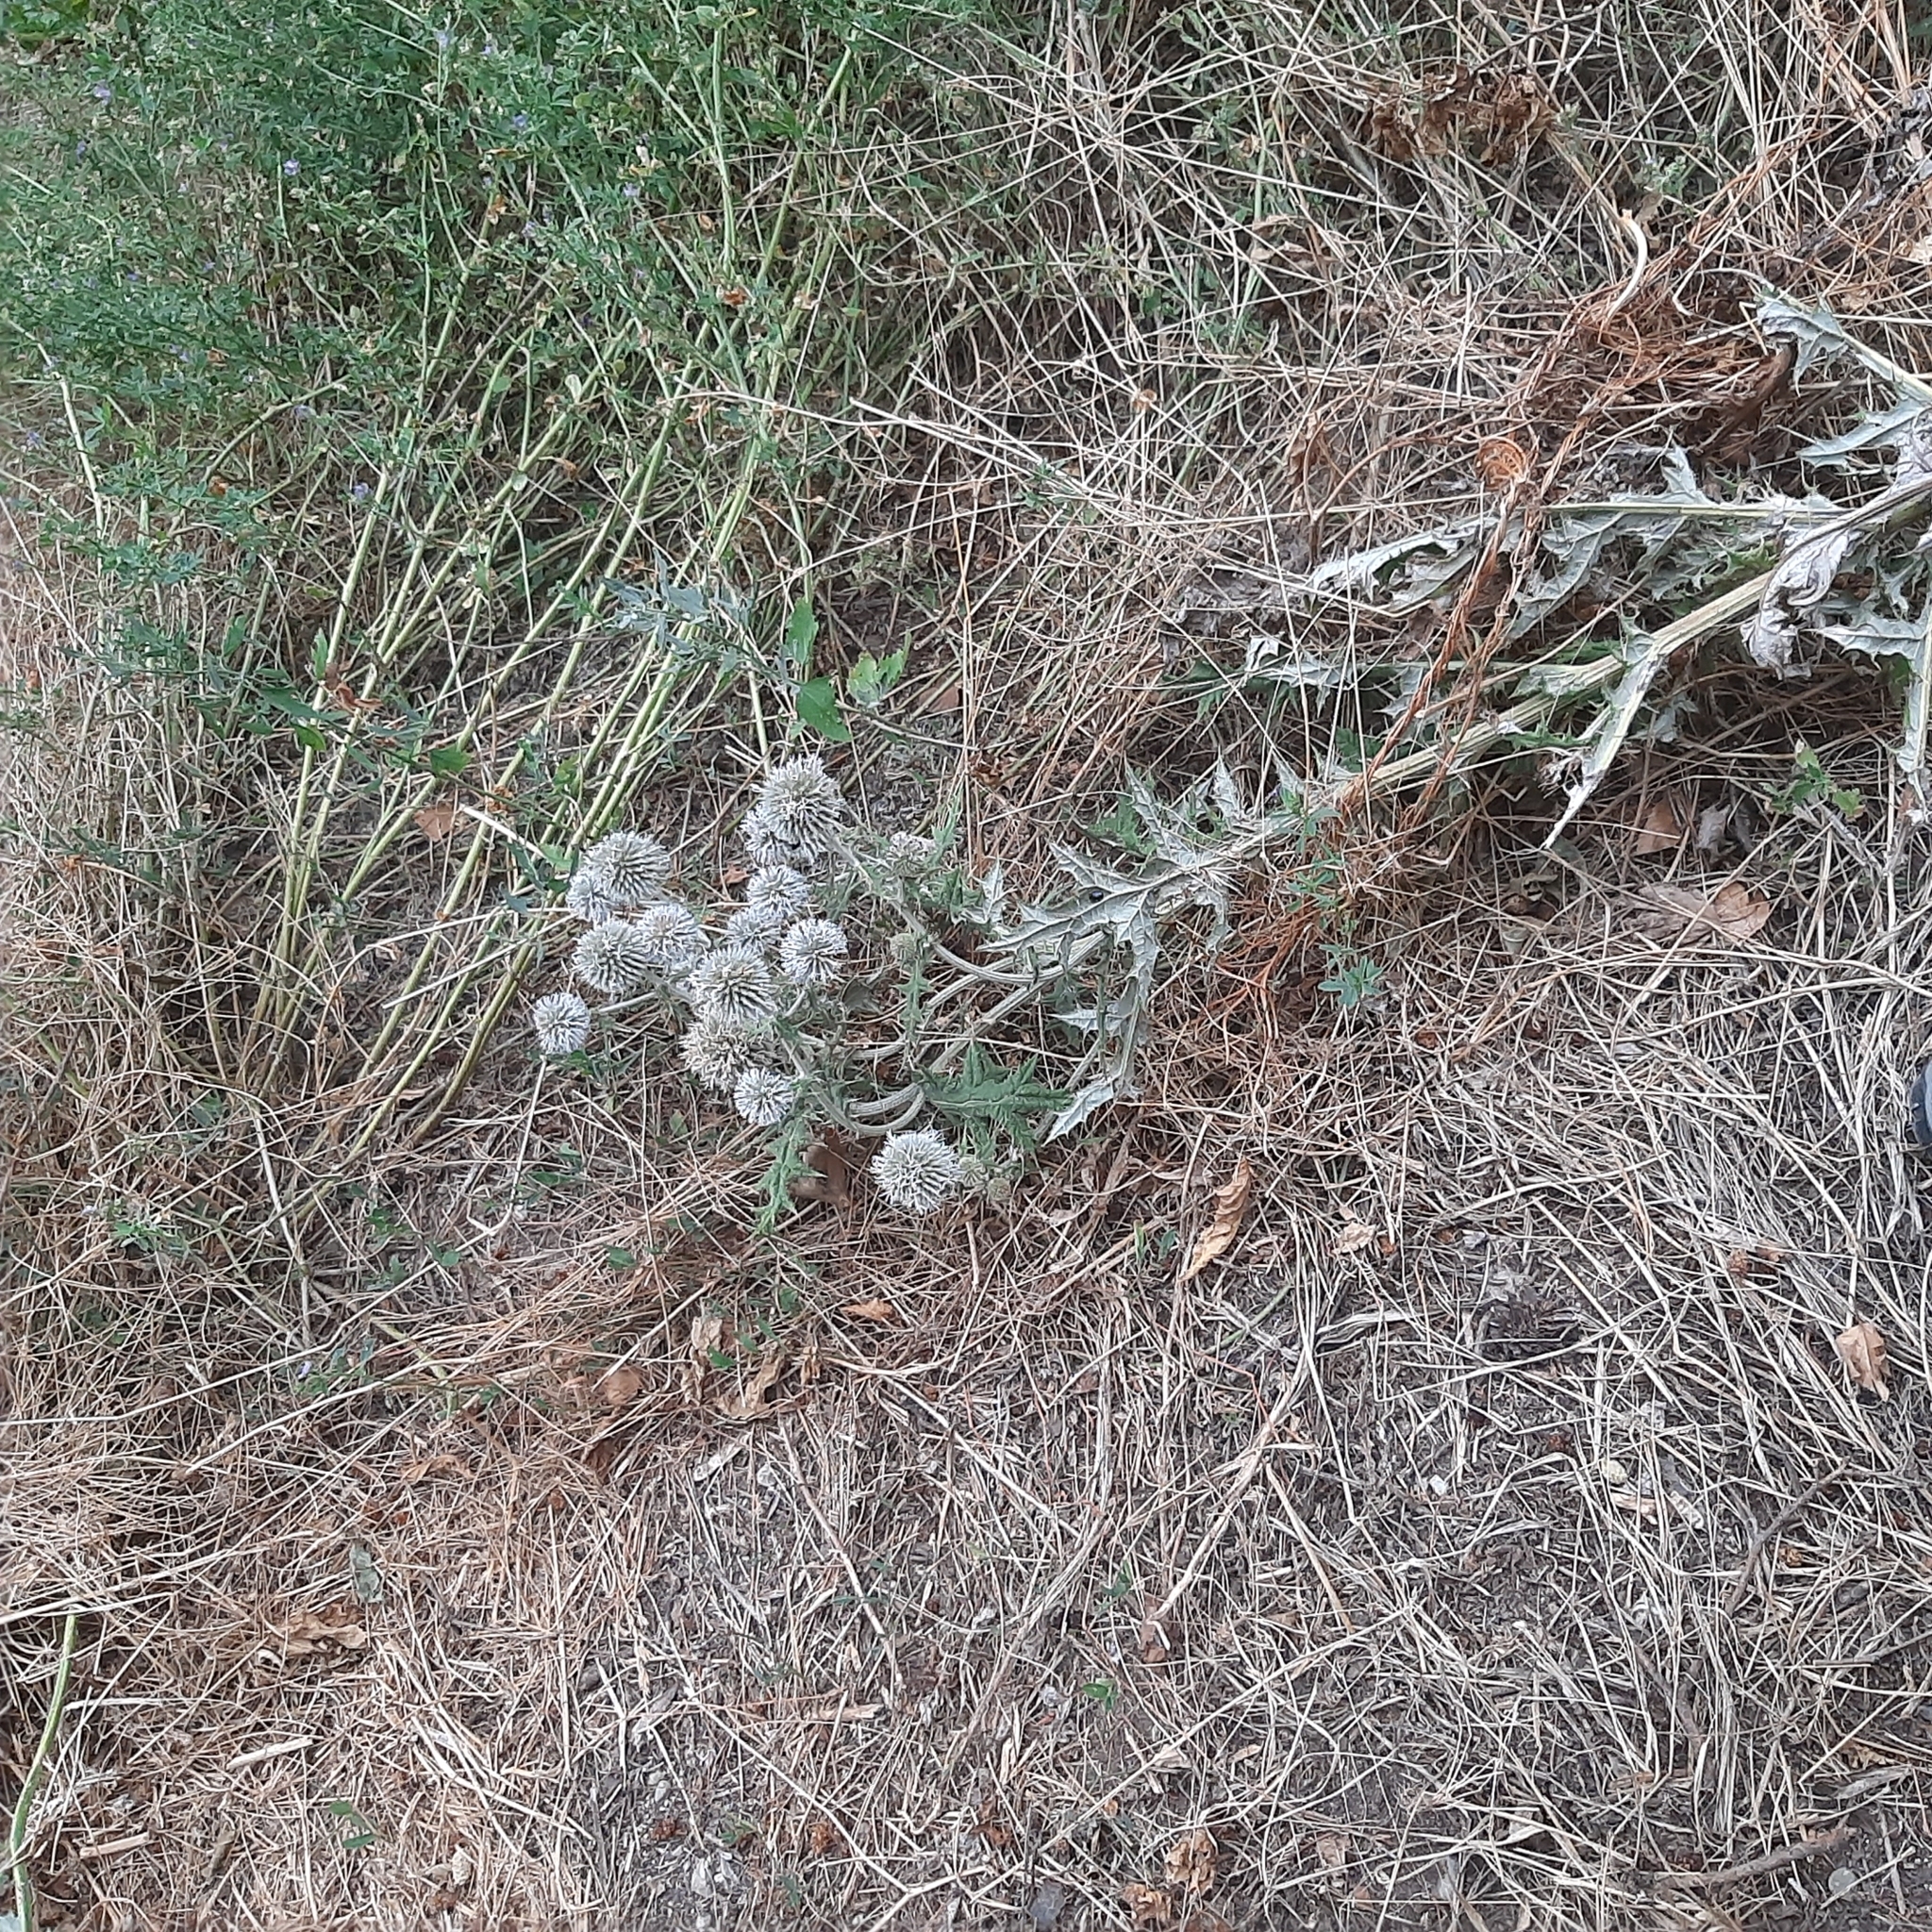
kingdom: Plantae
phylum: Tracheophyta
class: Magnoliopsida
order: Asterales
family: Asteraceae
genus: Echinops
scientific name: Echinops sphaerocephalus
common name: Glandular globe-thistle
